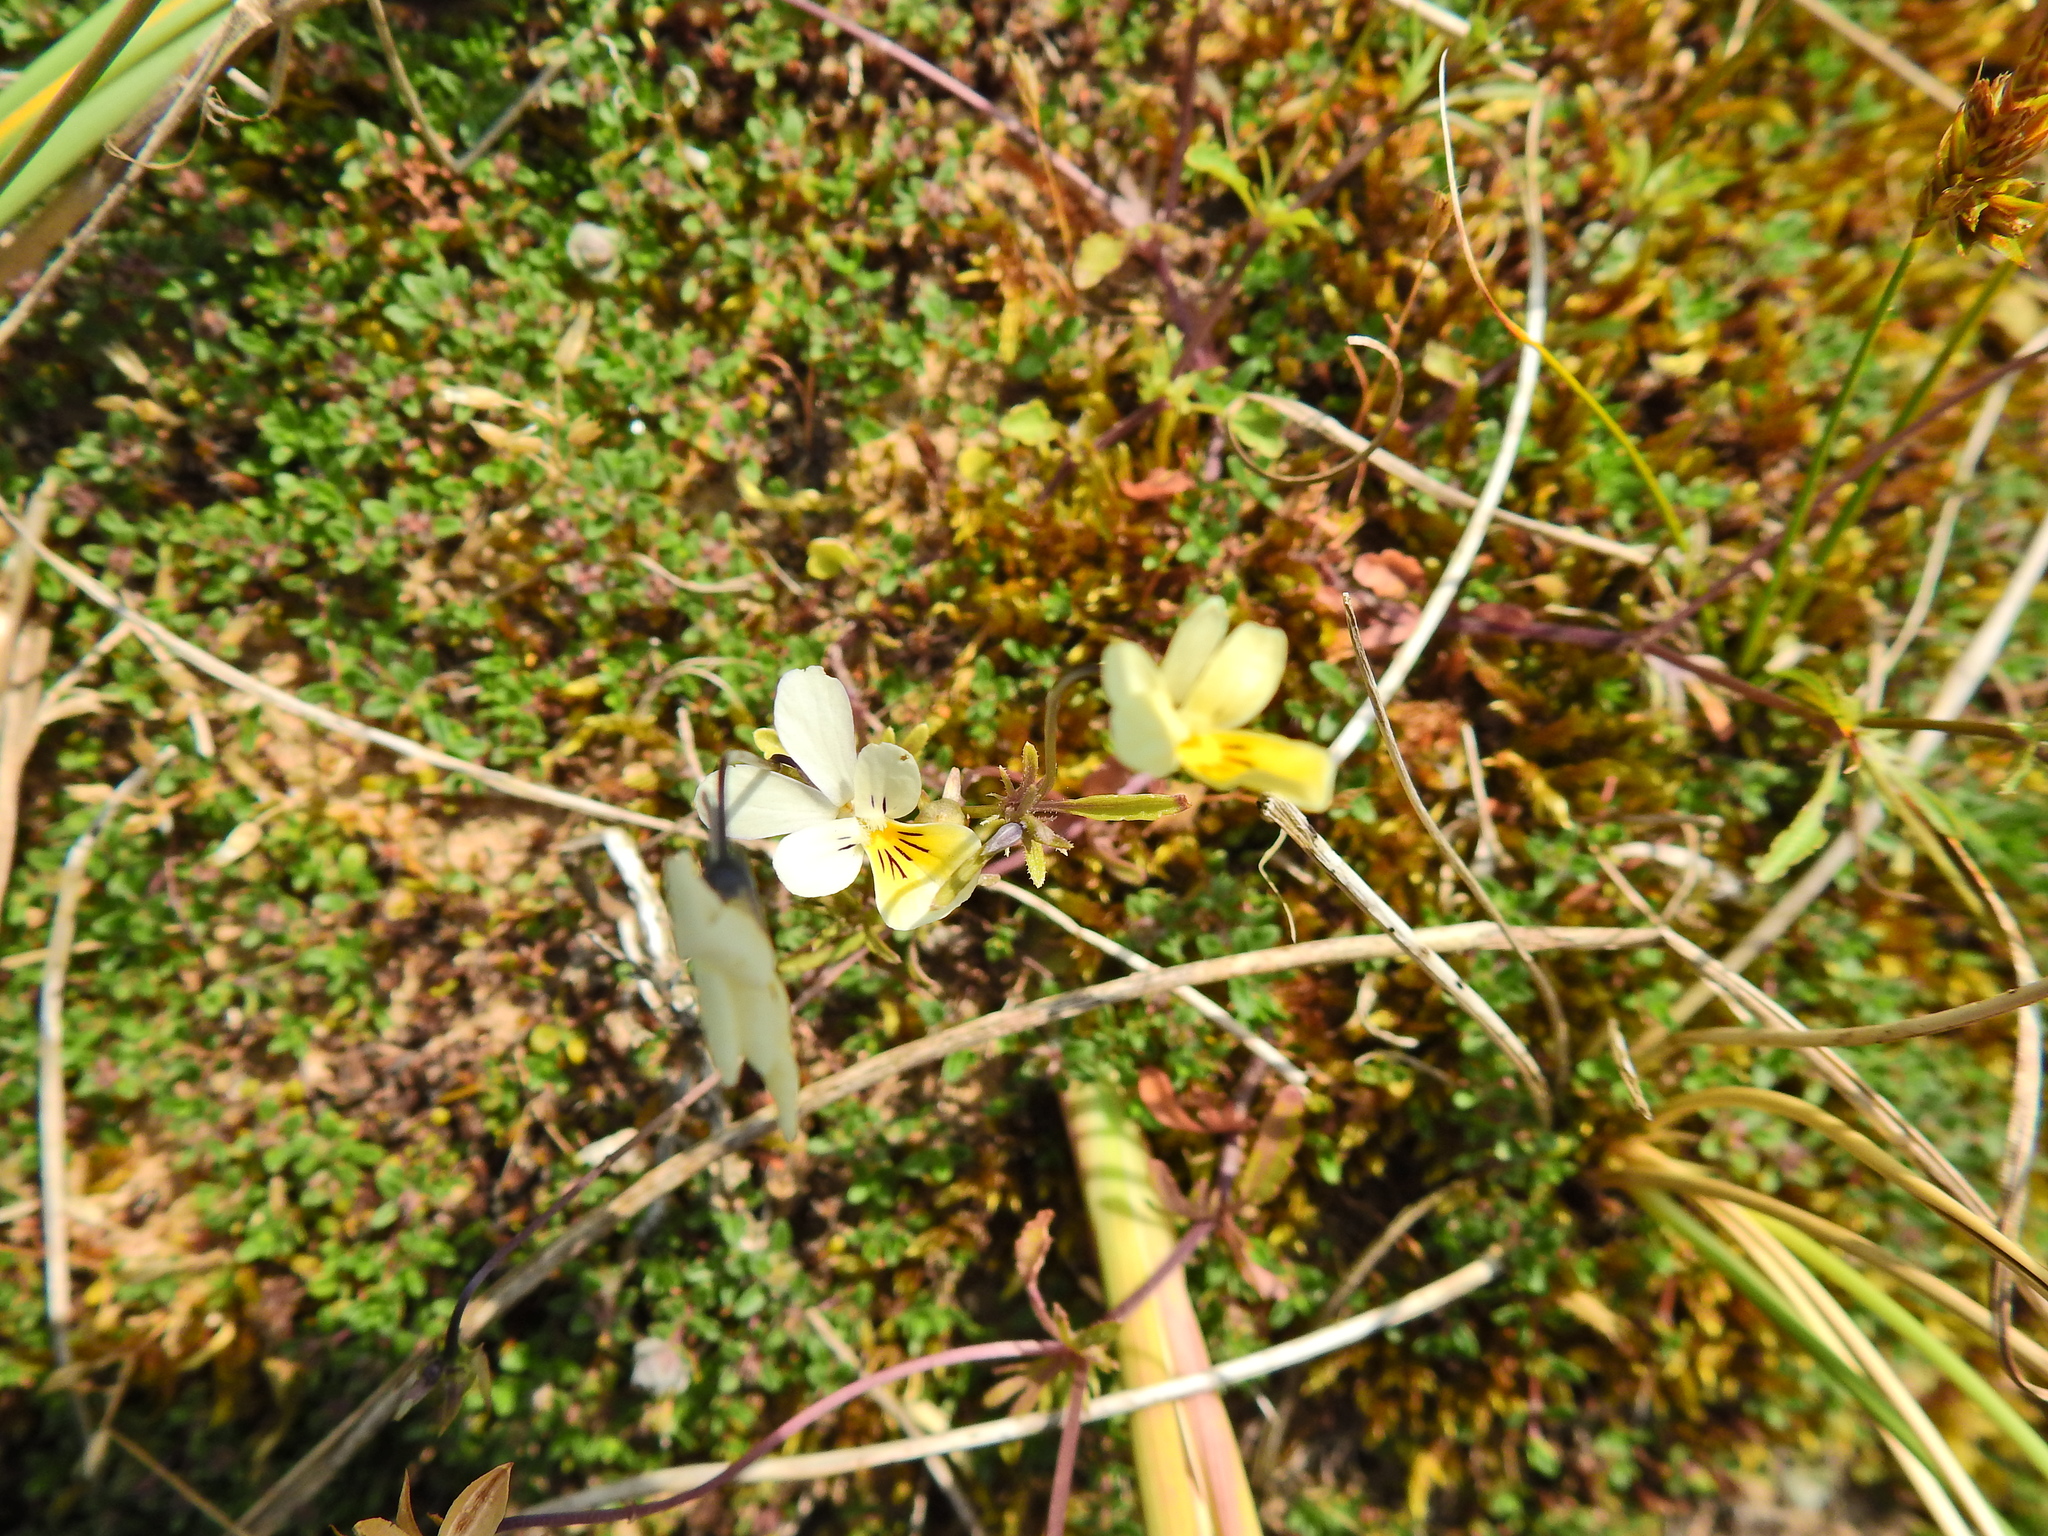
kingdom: Plantae
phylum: Tracheophyta
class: Magnoliopsida
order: Malpighiales
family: Violaceae
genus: Viola
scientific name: Viola tricolor
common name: Pansy
